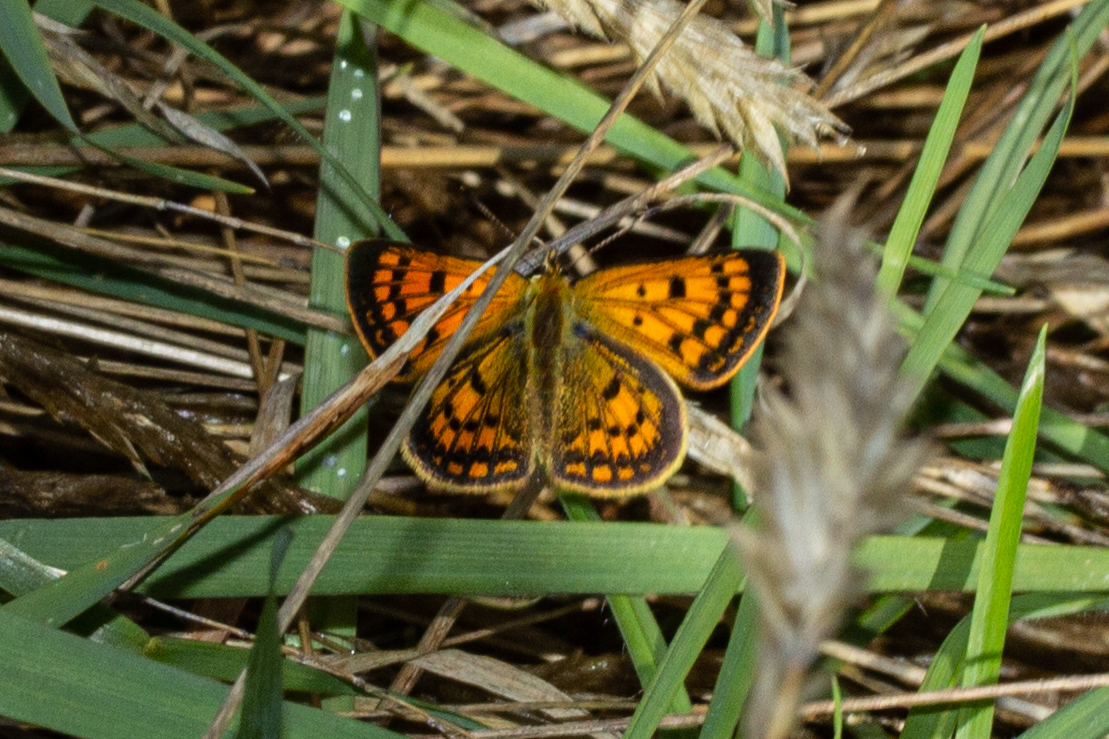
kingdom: Animalia
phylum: Arthropoda
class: Insecta
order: Lepidoptera
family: Lycaenidae
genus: Lycaena
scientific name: Lycaena
